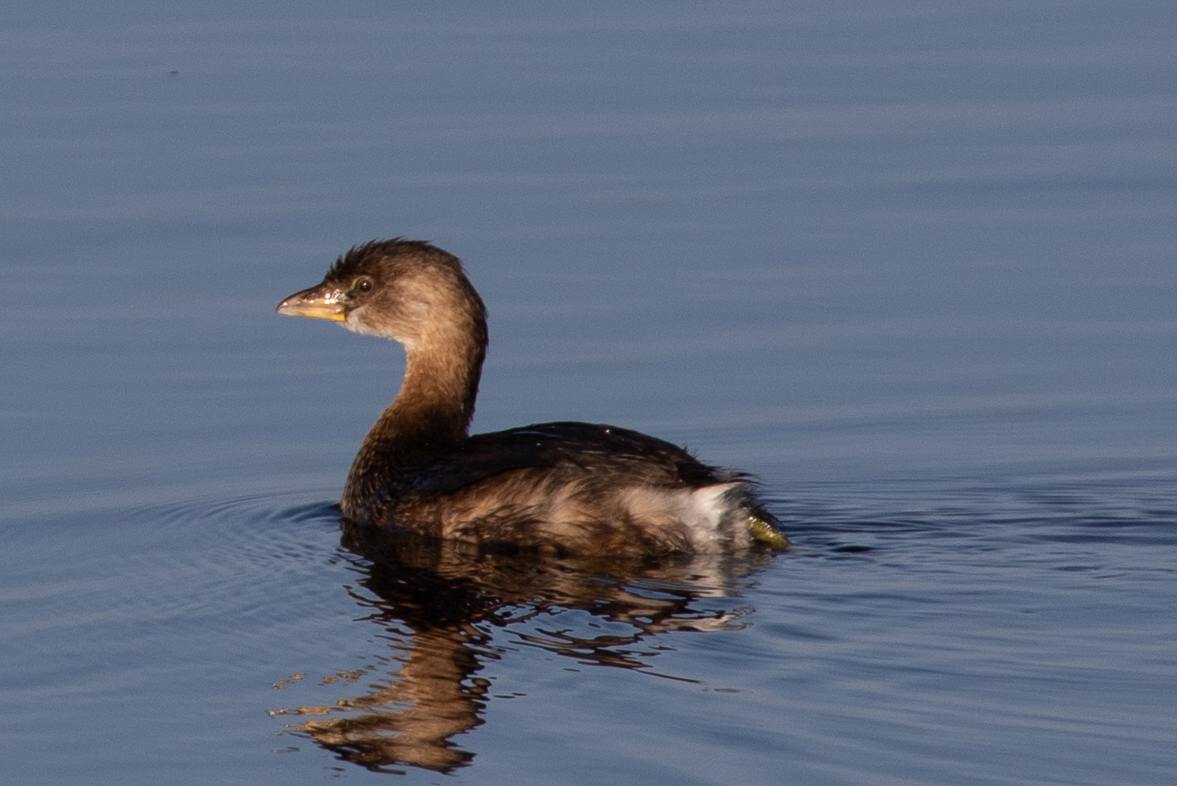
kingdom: Animalia
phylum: Chordata
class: Aves
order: Podicipediformes
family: Podicipedidae
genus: Podilymbus
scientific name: Podilymbus podiceps
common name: Pied-billed grebe
